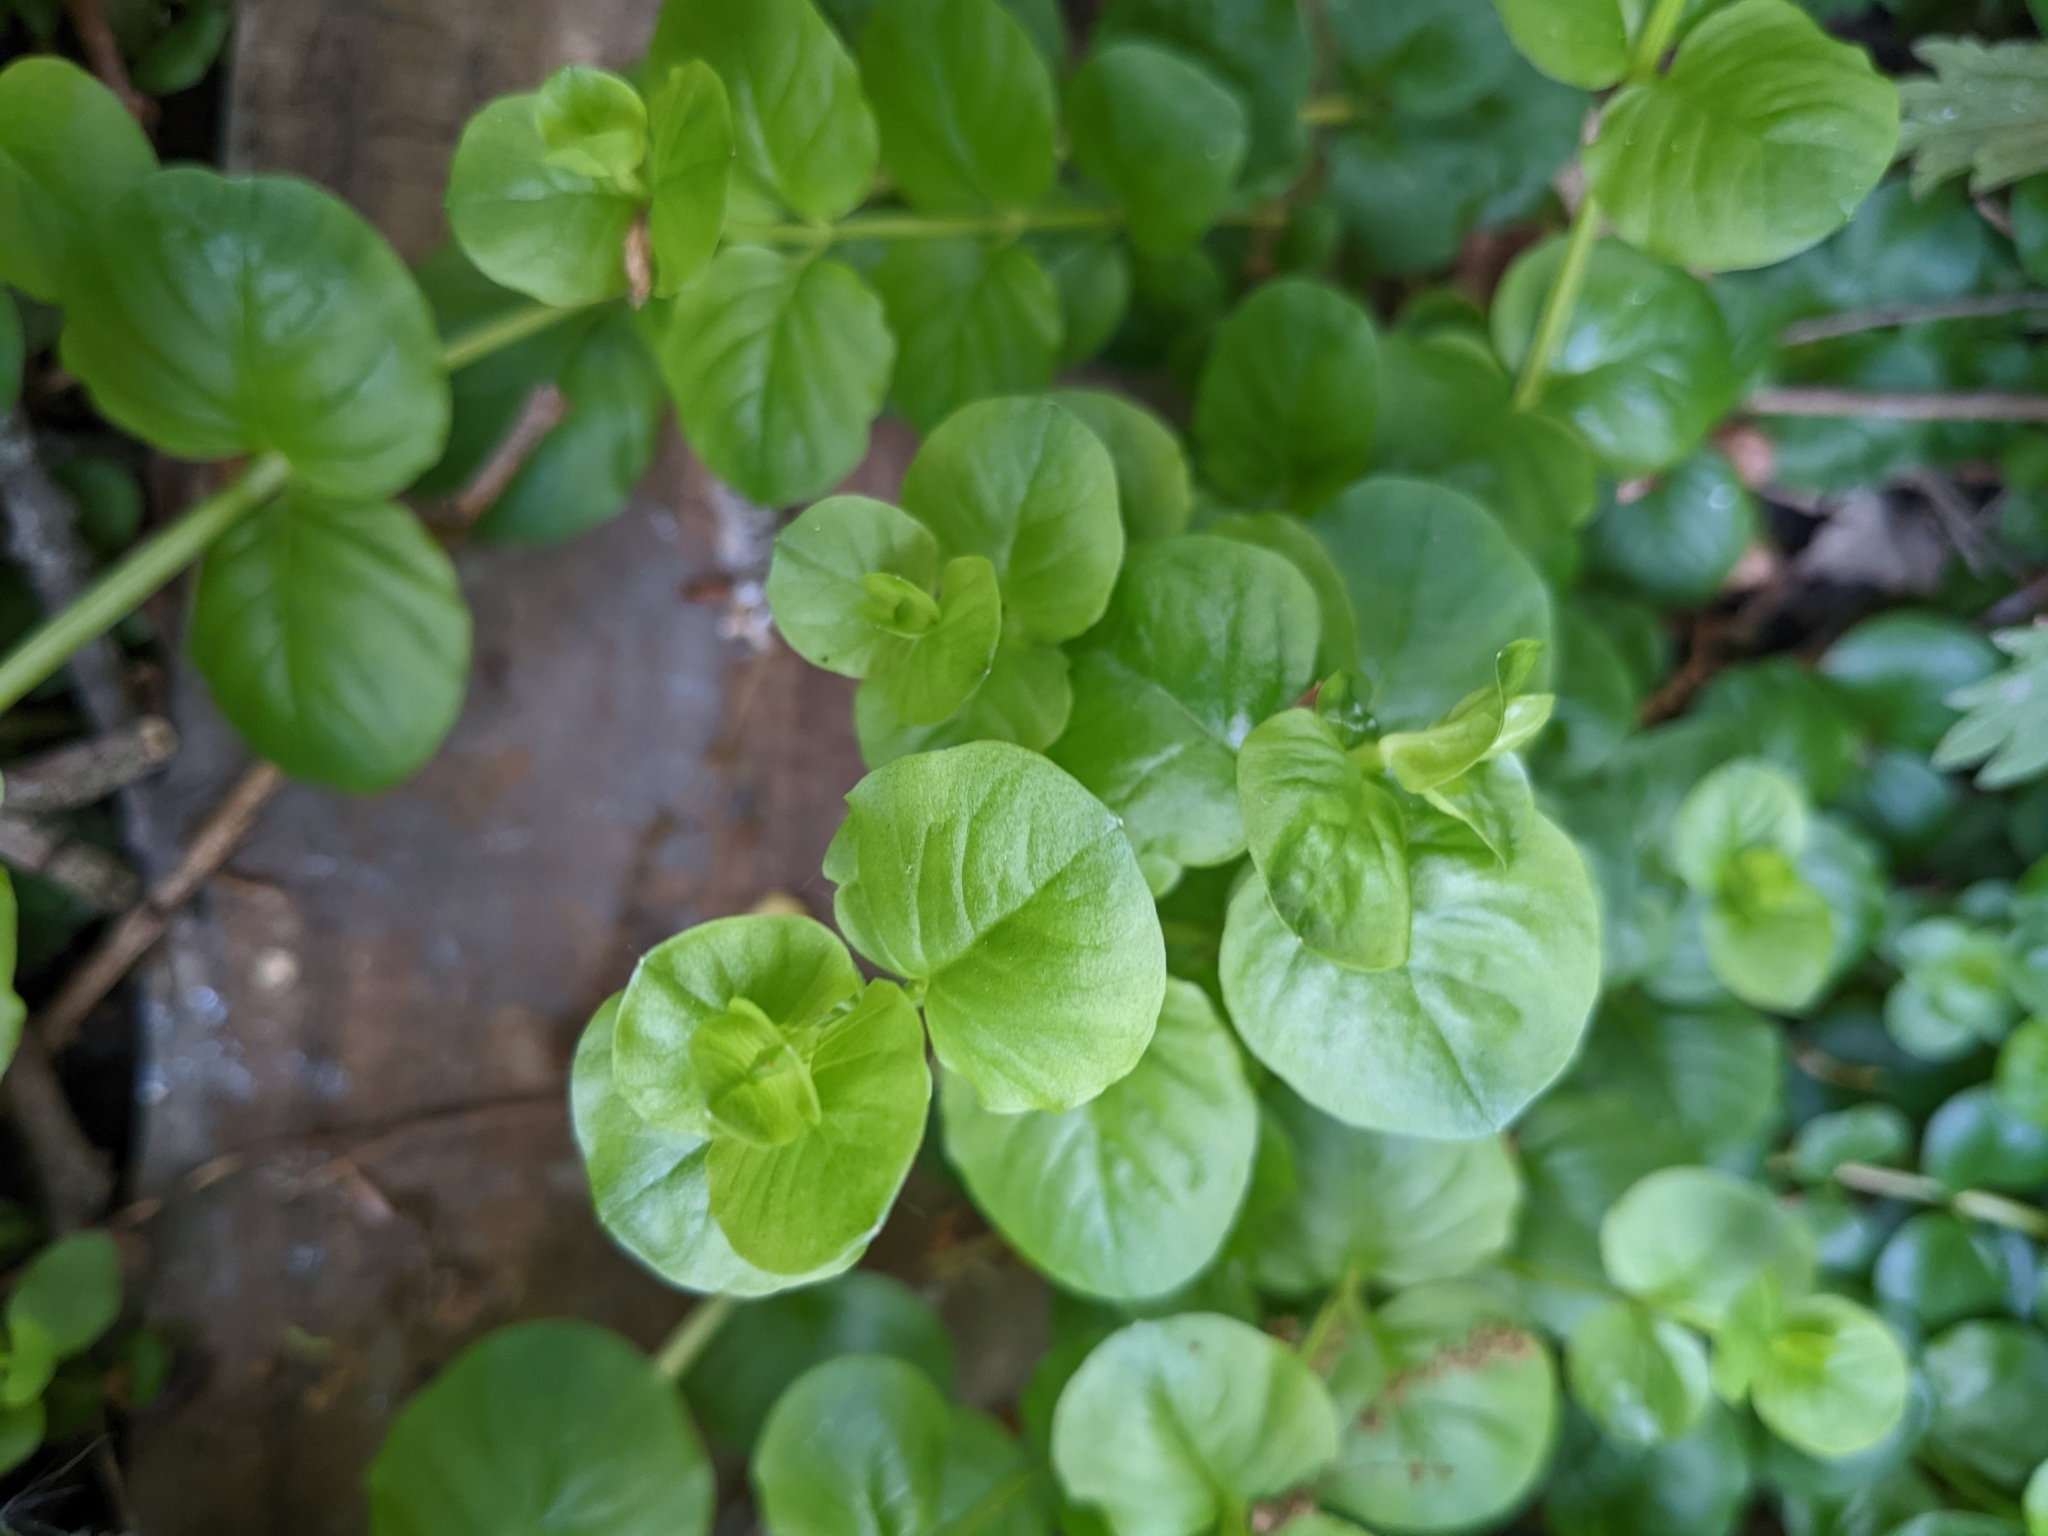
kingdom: Plantae
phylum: Tracheophyta
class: Magnoliopsida
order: Ericales
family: Primulaceae
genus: Lysimachia
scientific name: Lysimachia nummularia
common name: Moneywort
